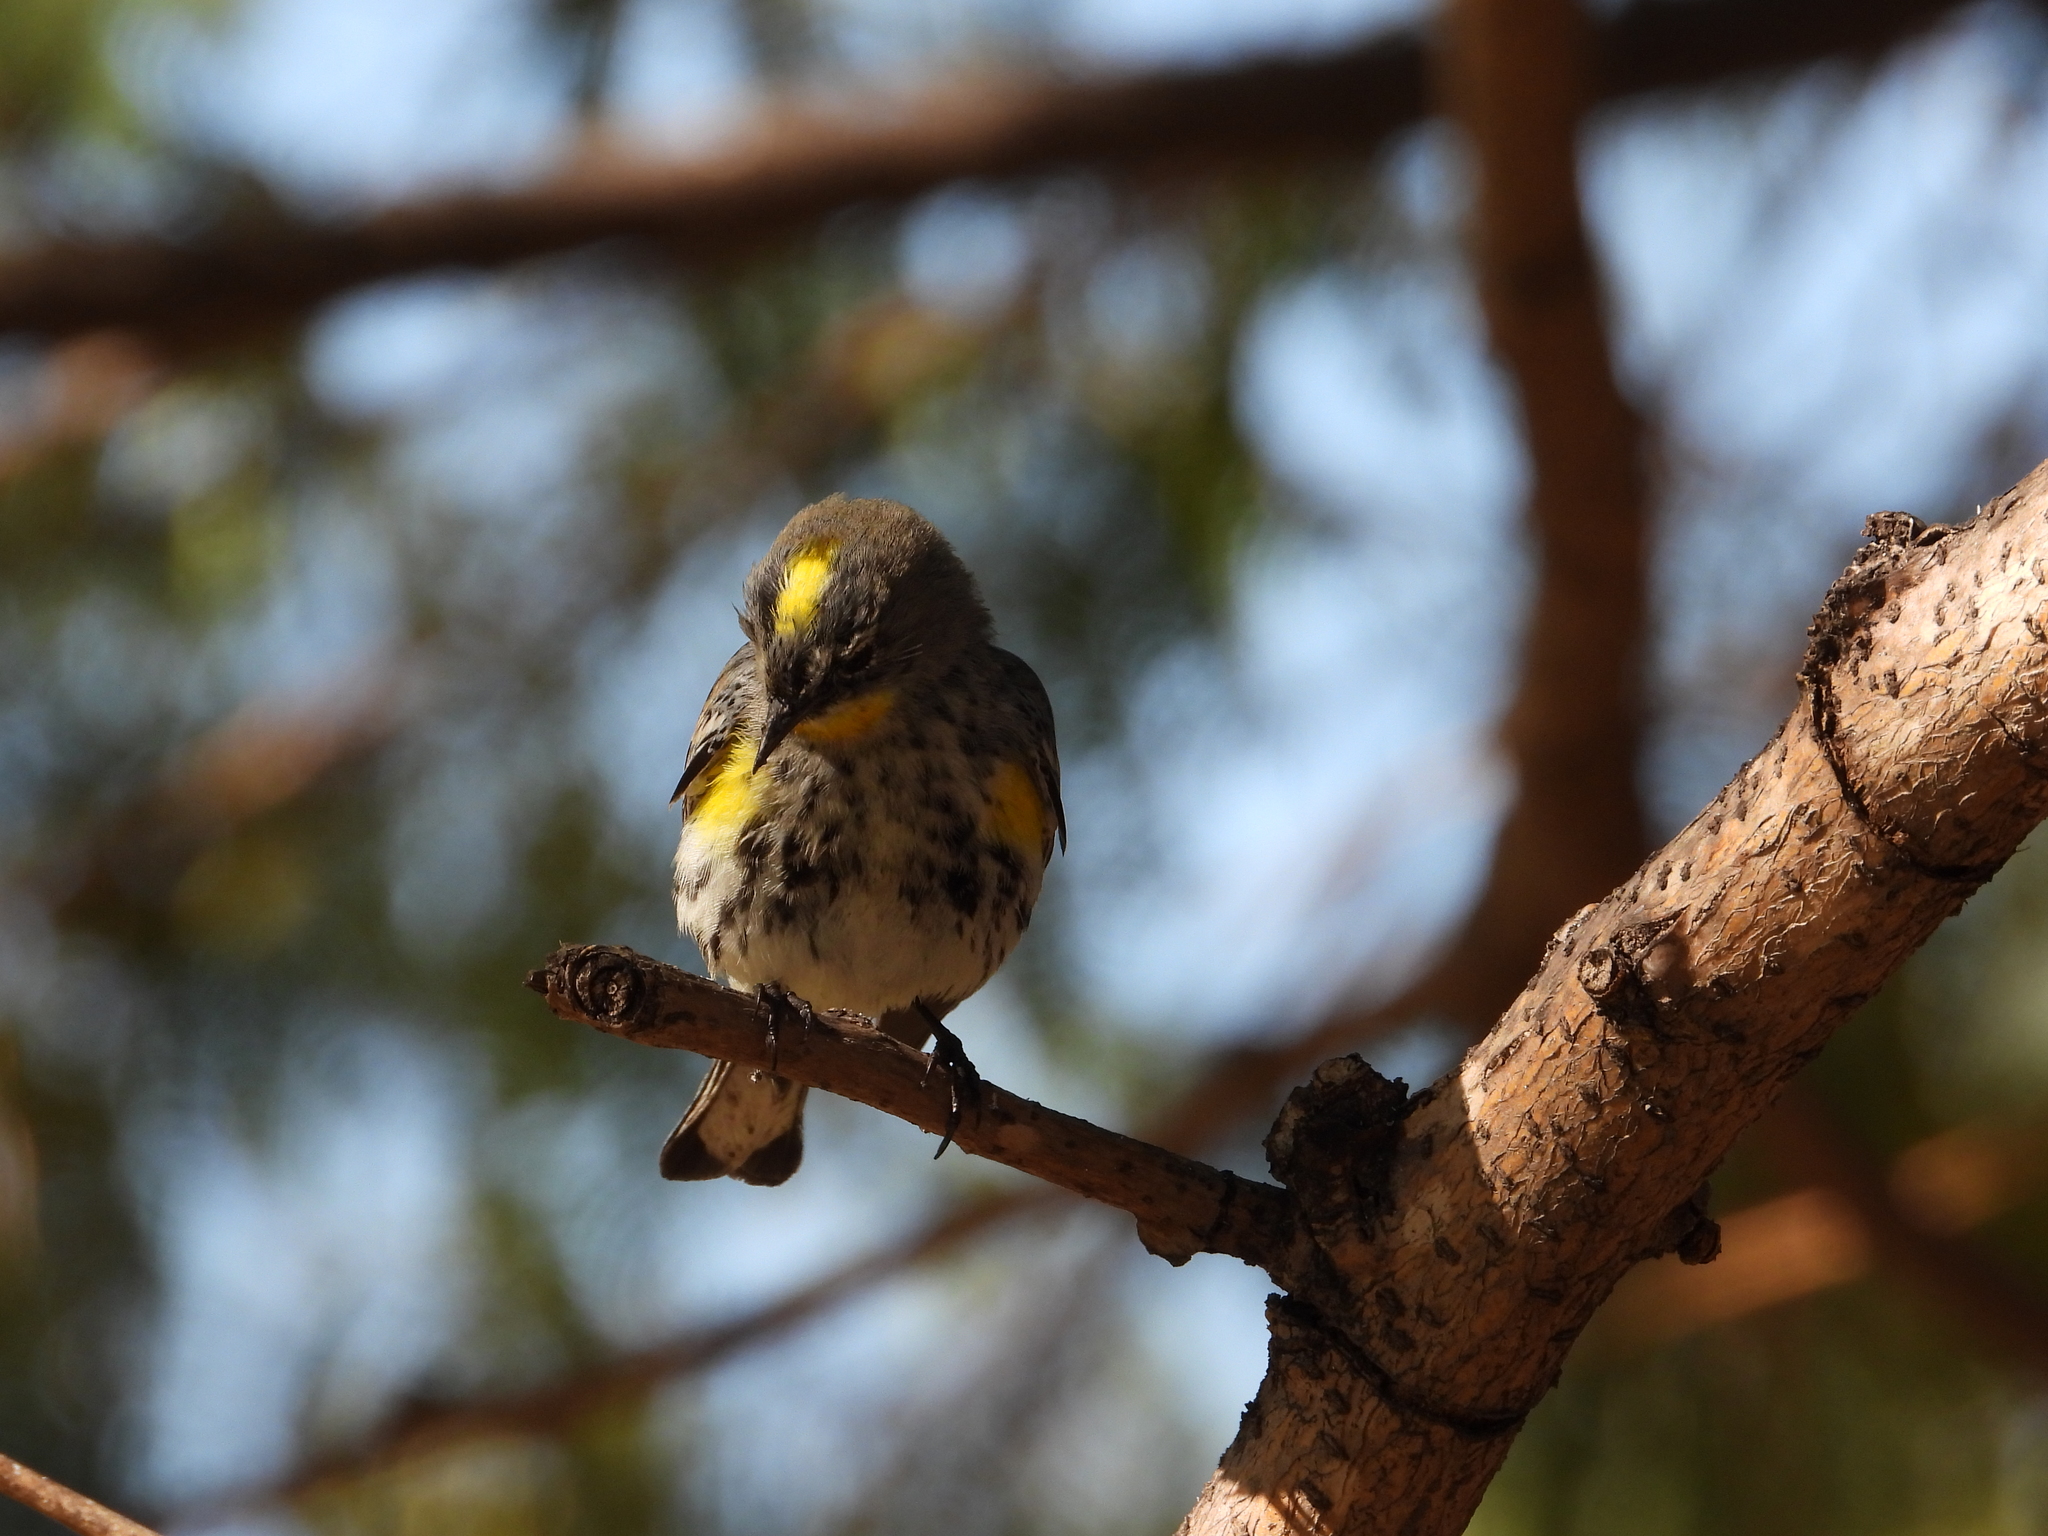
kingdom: Animalia
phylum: Chordata
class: Aves
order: Passeriformes
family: Parulidae
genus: Setophaga
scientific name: Setophaga coronata
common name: Myrtle warbler
